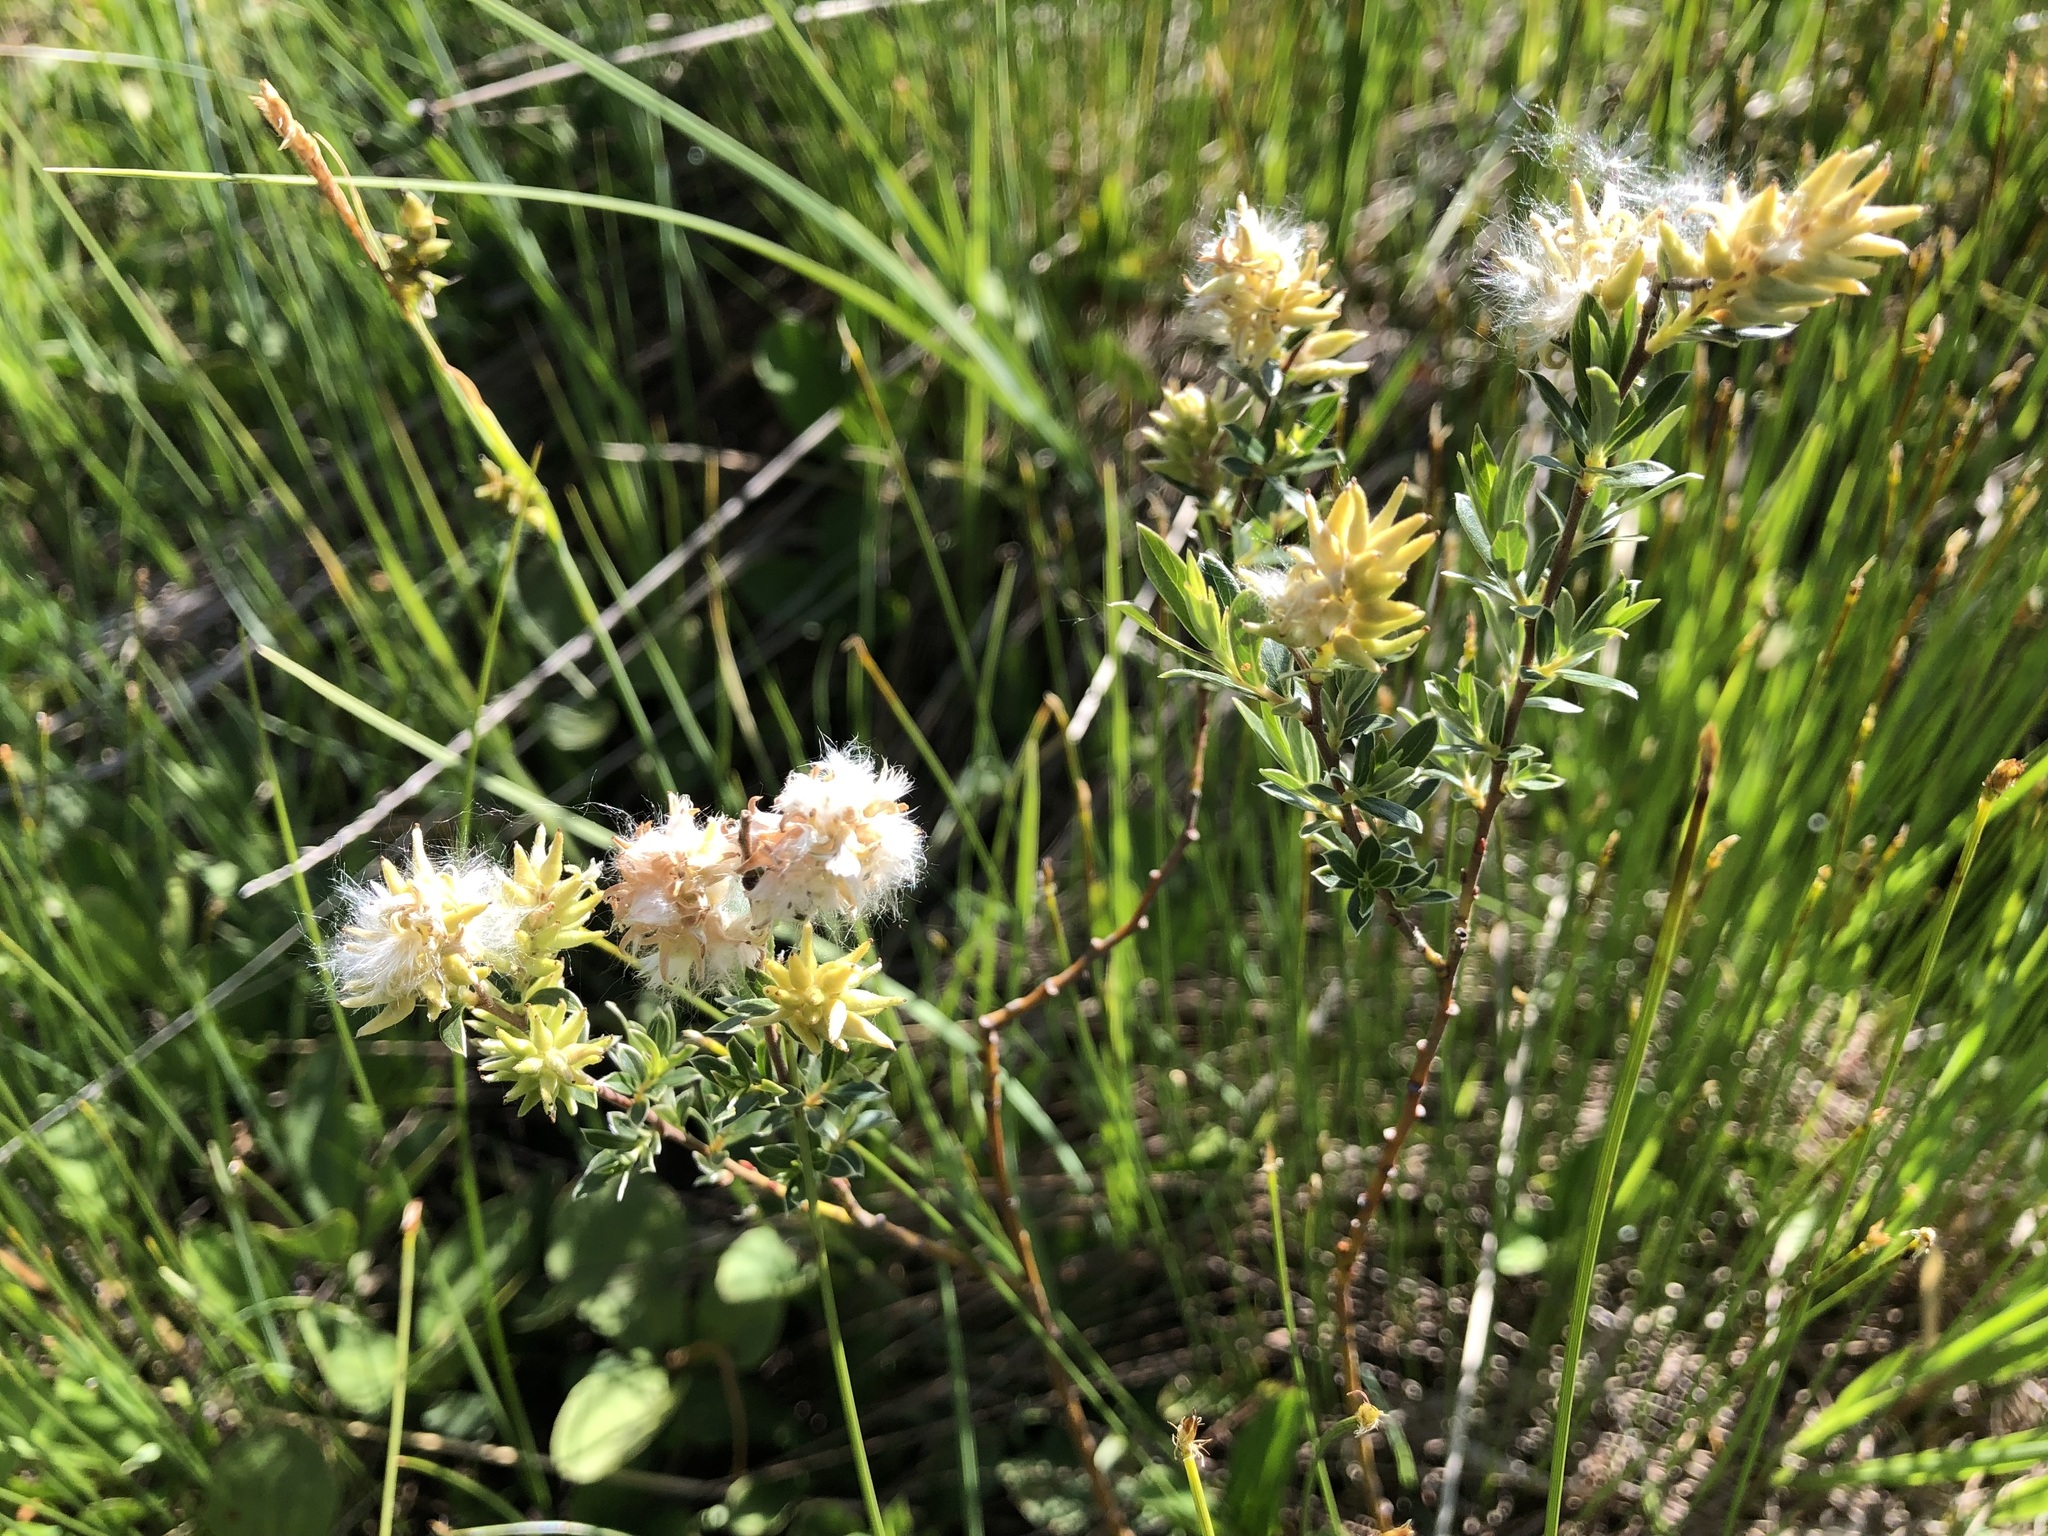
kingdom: Plantae
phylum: Tracheophyta
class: Magnoliopsida
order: Malpighiales
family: Salicaceae
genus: Salix
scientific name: Salix repens
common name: Creeping willow
